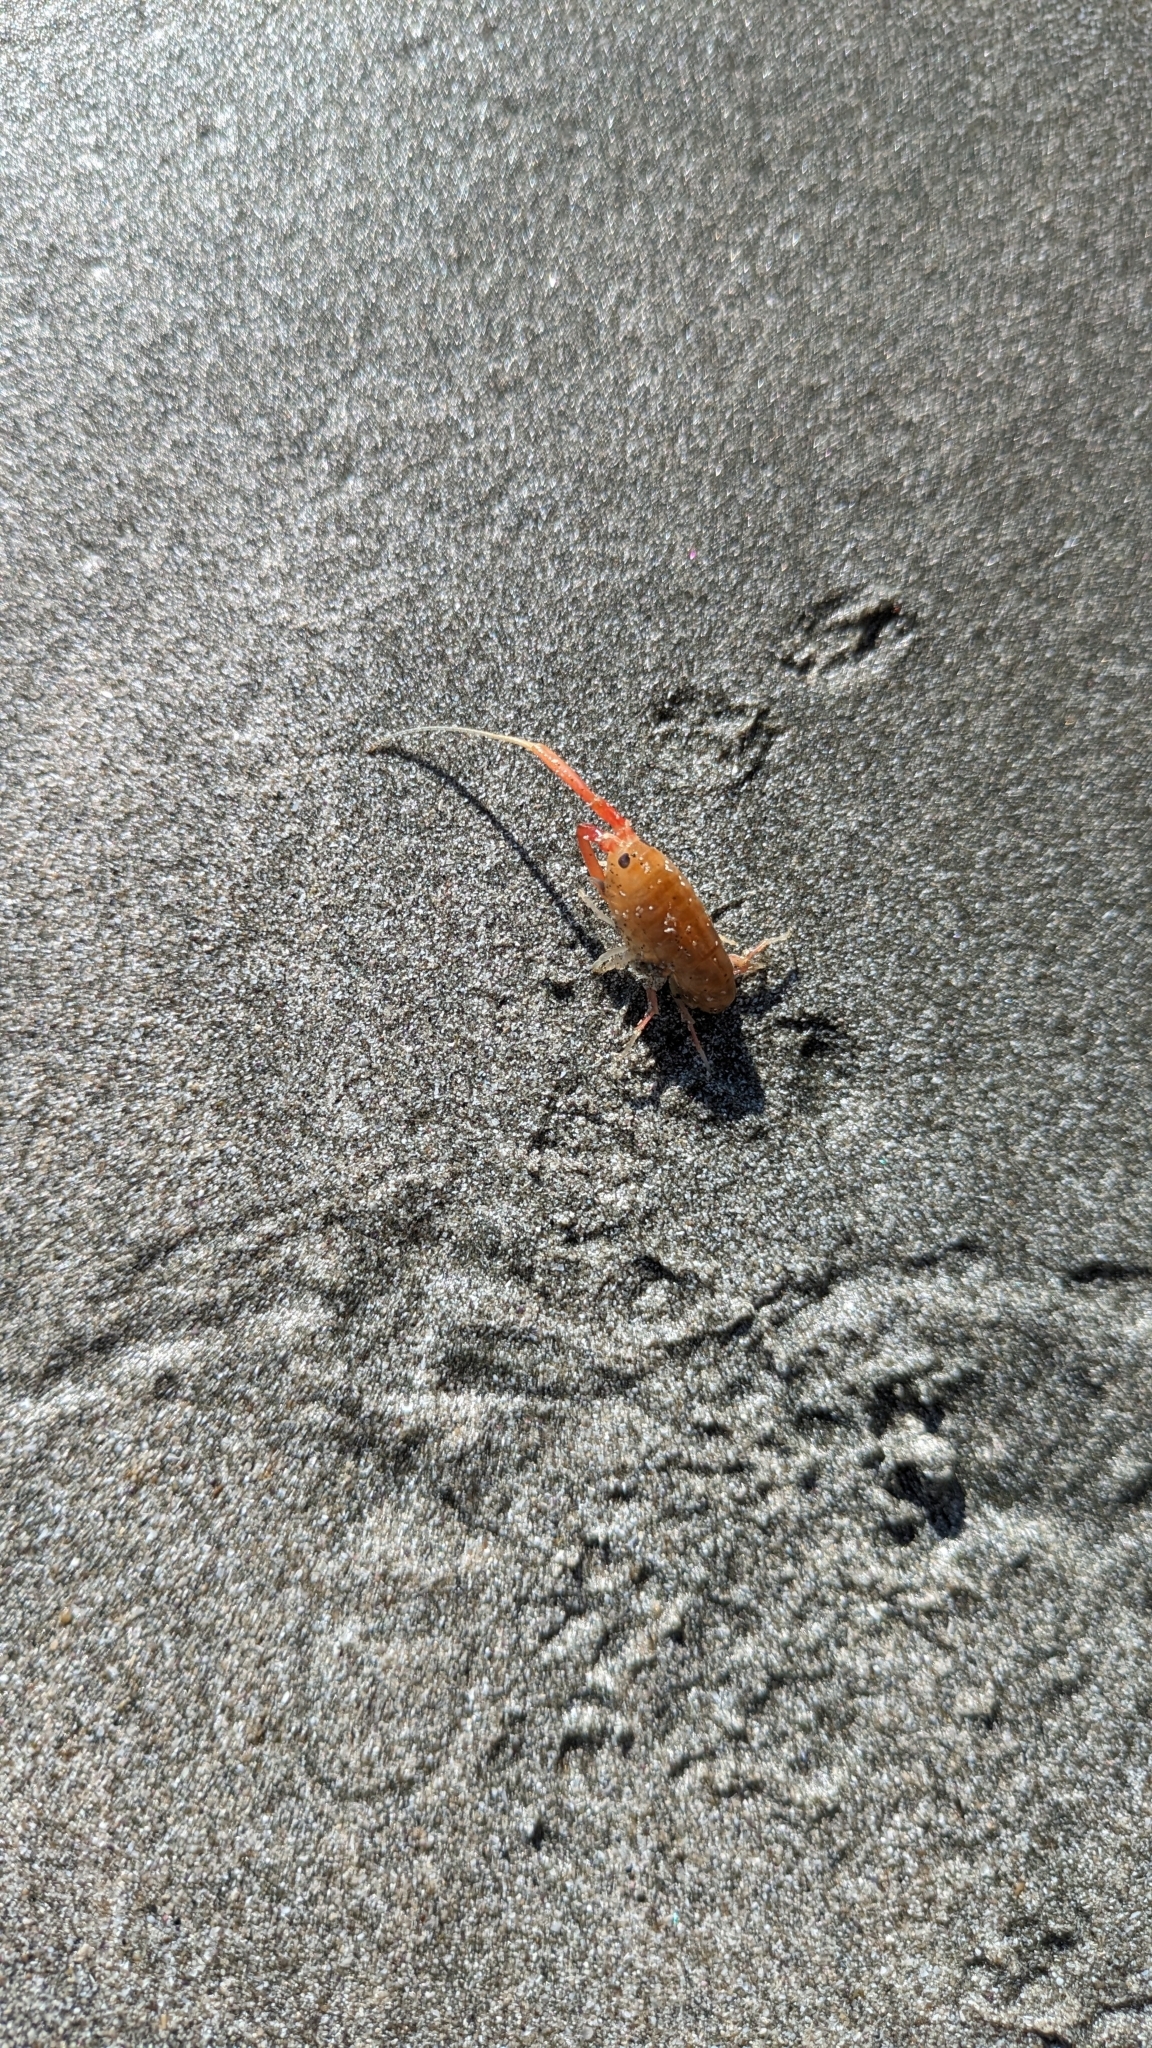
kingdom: Animalia
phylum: Arthropoda
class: Malacostraca
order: Amphipoda
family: Talitridae
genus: Megalorchestia
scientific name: Megalorchestia californiana
